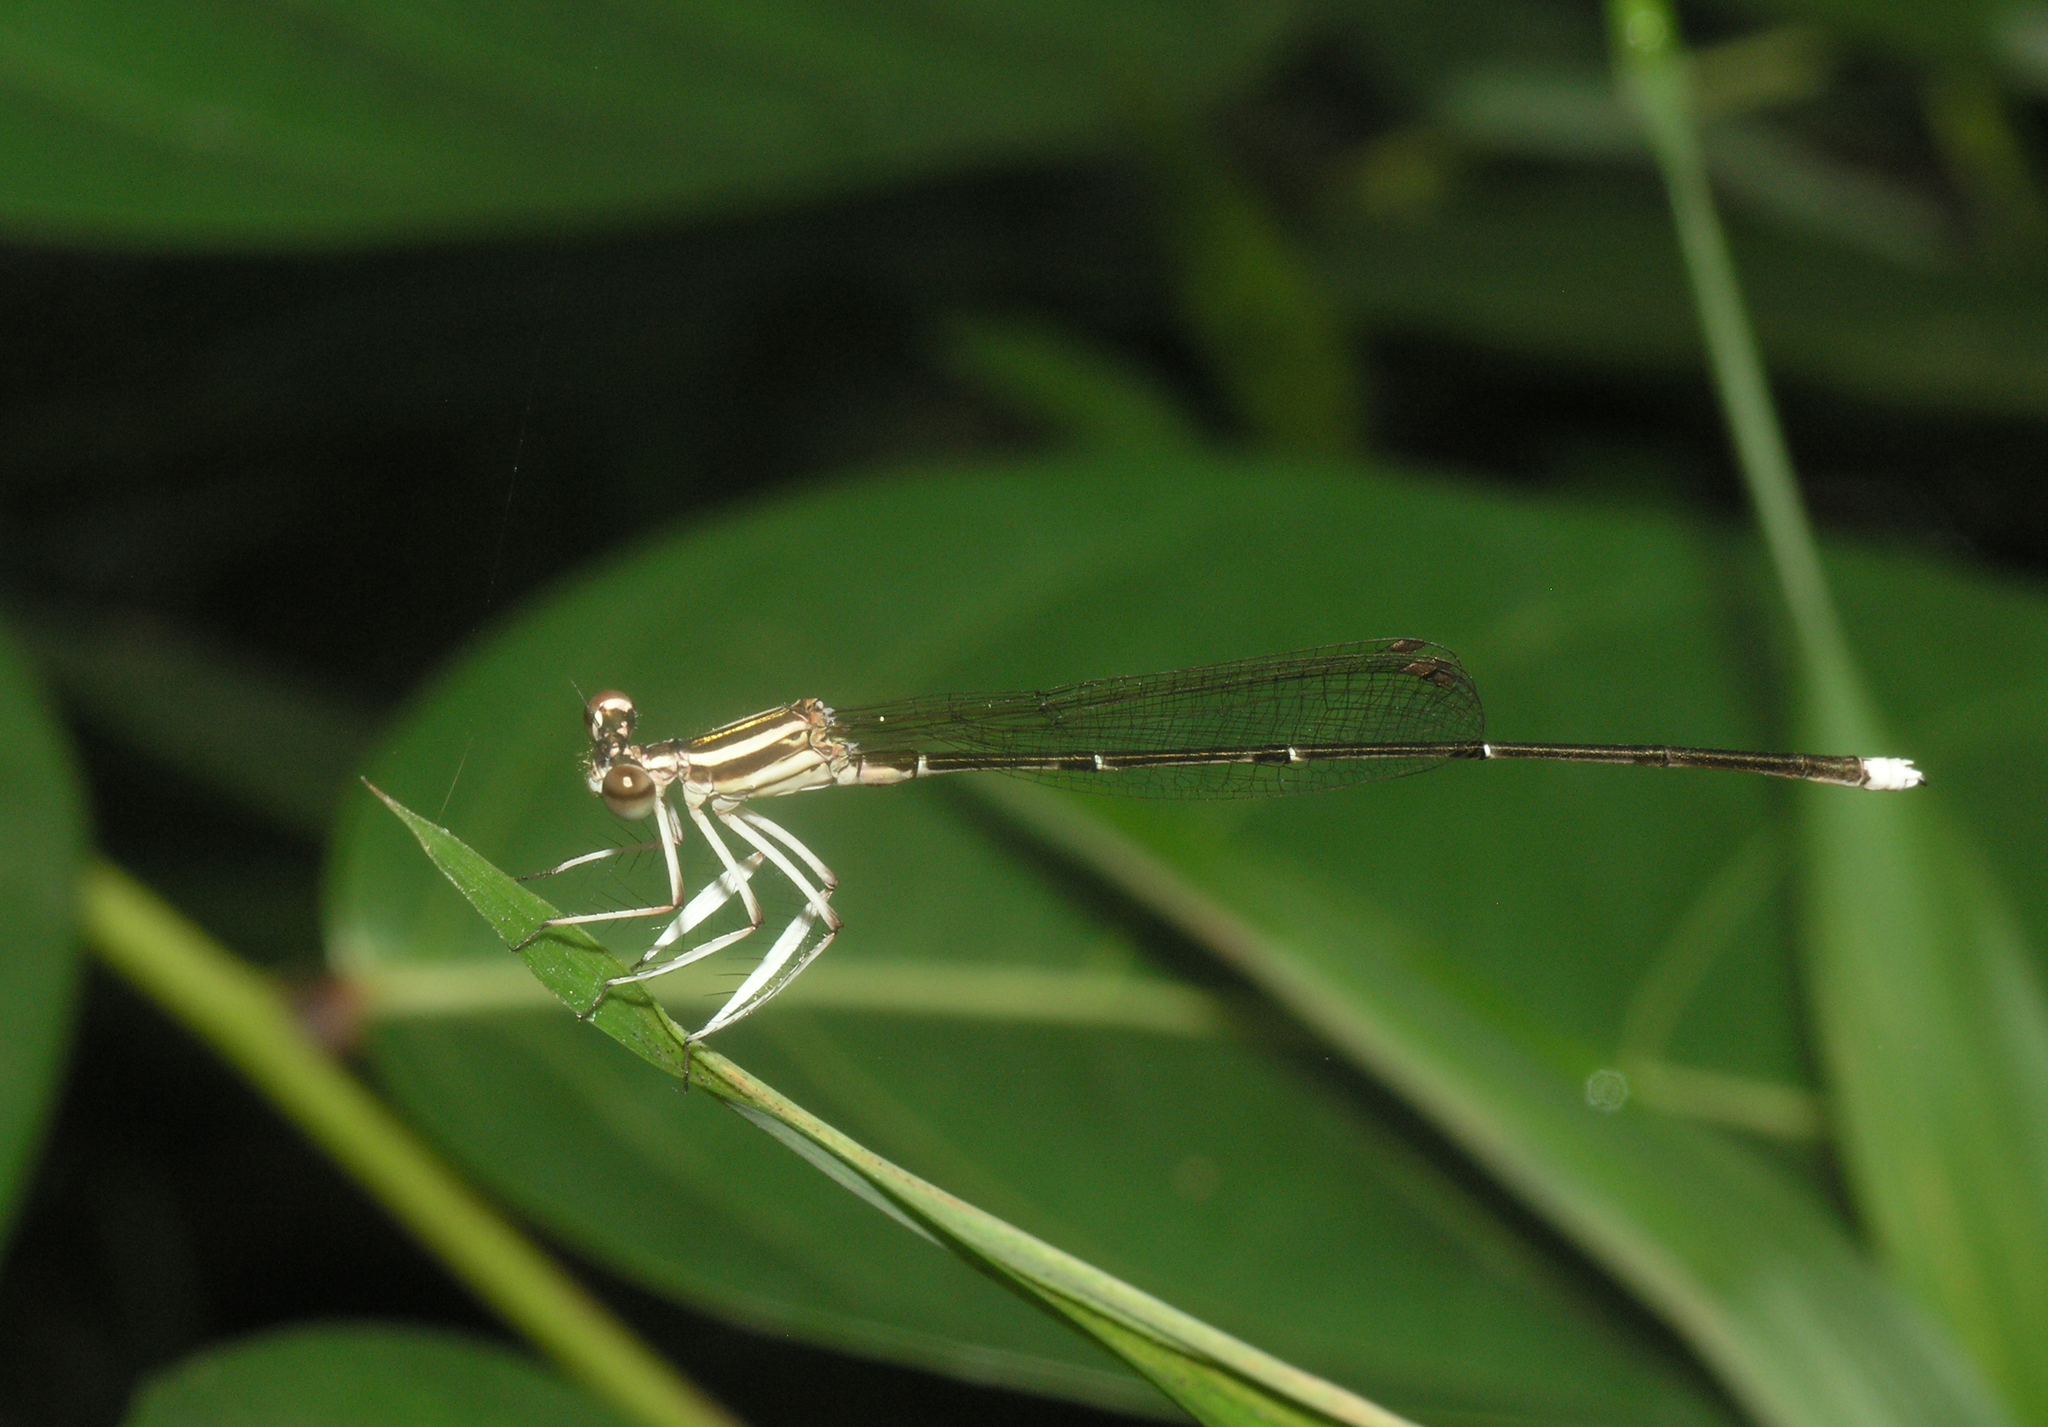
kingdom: Animalia
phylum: Arthropoda
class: Insecta
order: Odonata
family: Platycnemididae
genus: Pseudocopera
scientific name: Pseudocopera ciliata
